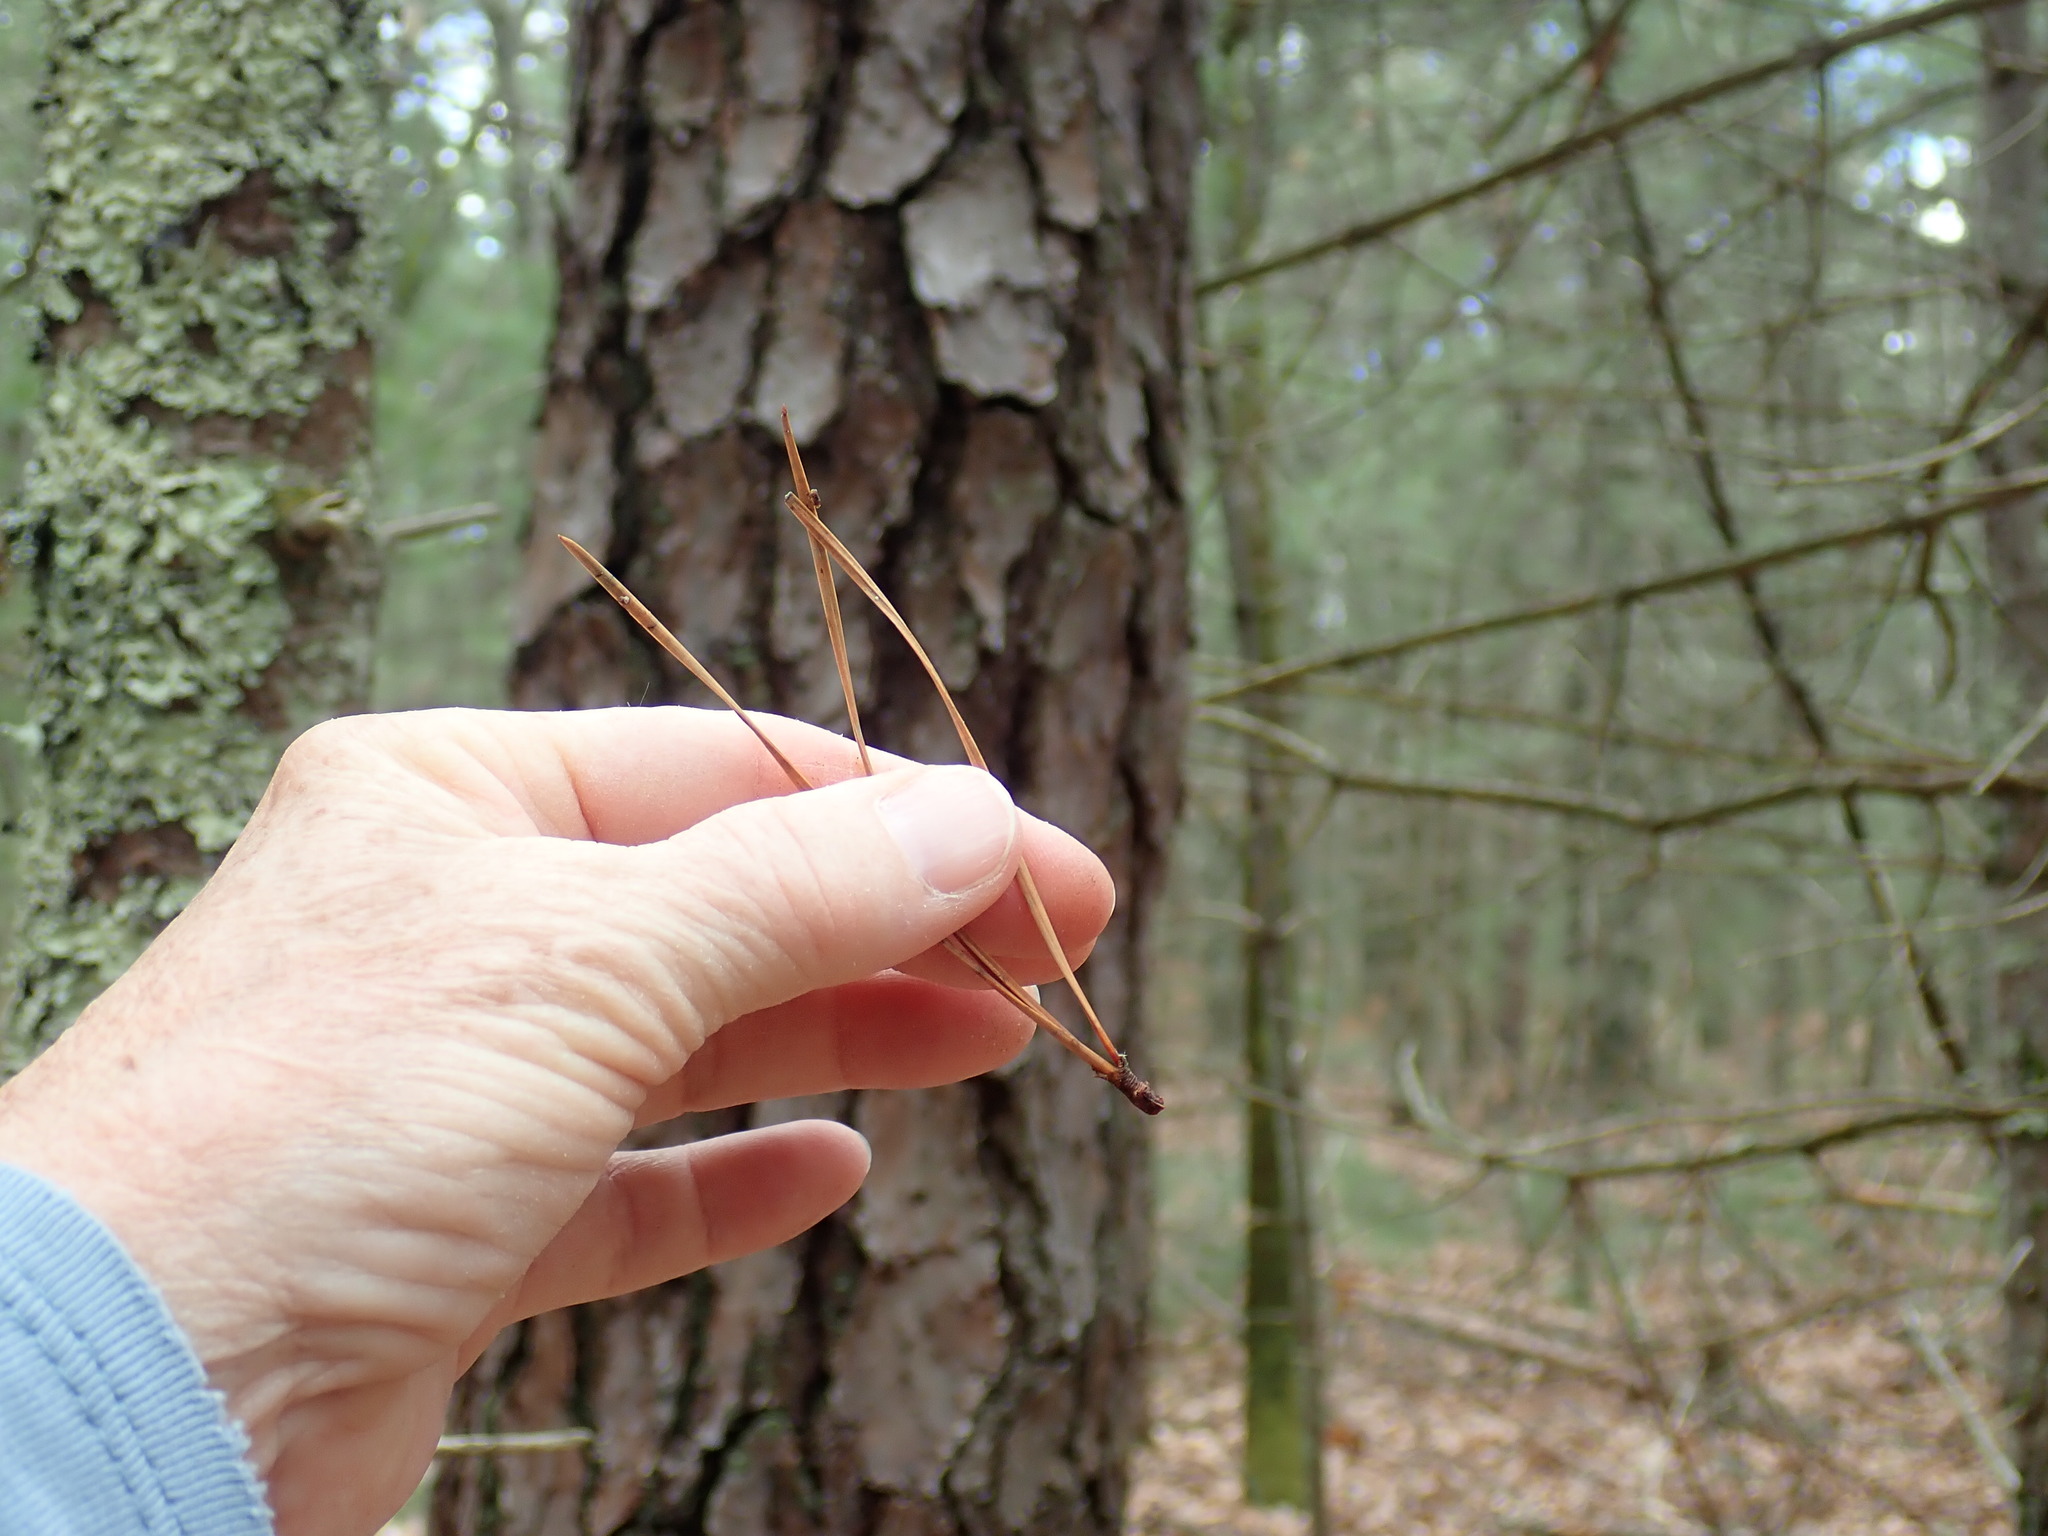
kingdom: Plantae
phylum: Tracheophyta
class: Pinopsida
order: Pinales
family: Pinaceae
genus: Pinus
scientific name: Pinus rigida
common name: Pitch pine
